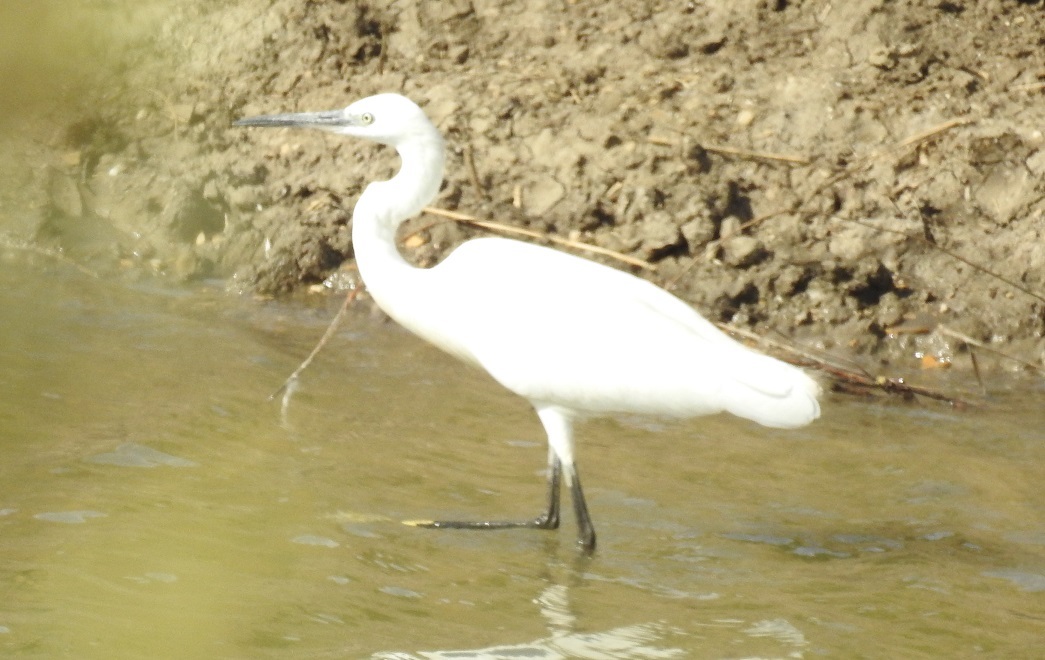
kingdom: Animalia
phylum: Chordata
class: Aves
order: Pelecaniformes
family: Ardeidae
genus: Egretta
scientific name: Egretta garzetta
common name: Little egret
